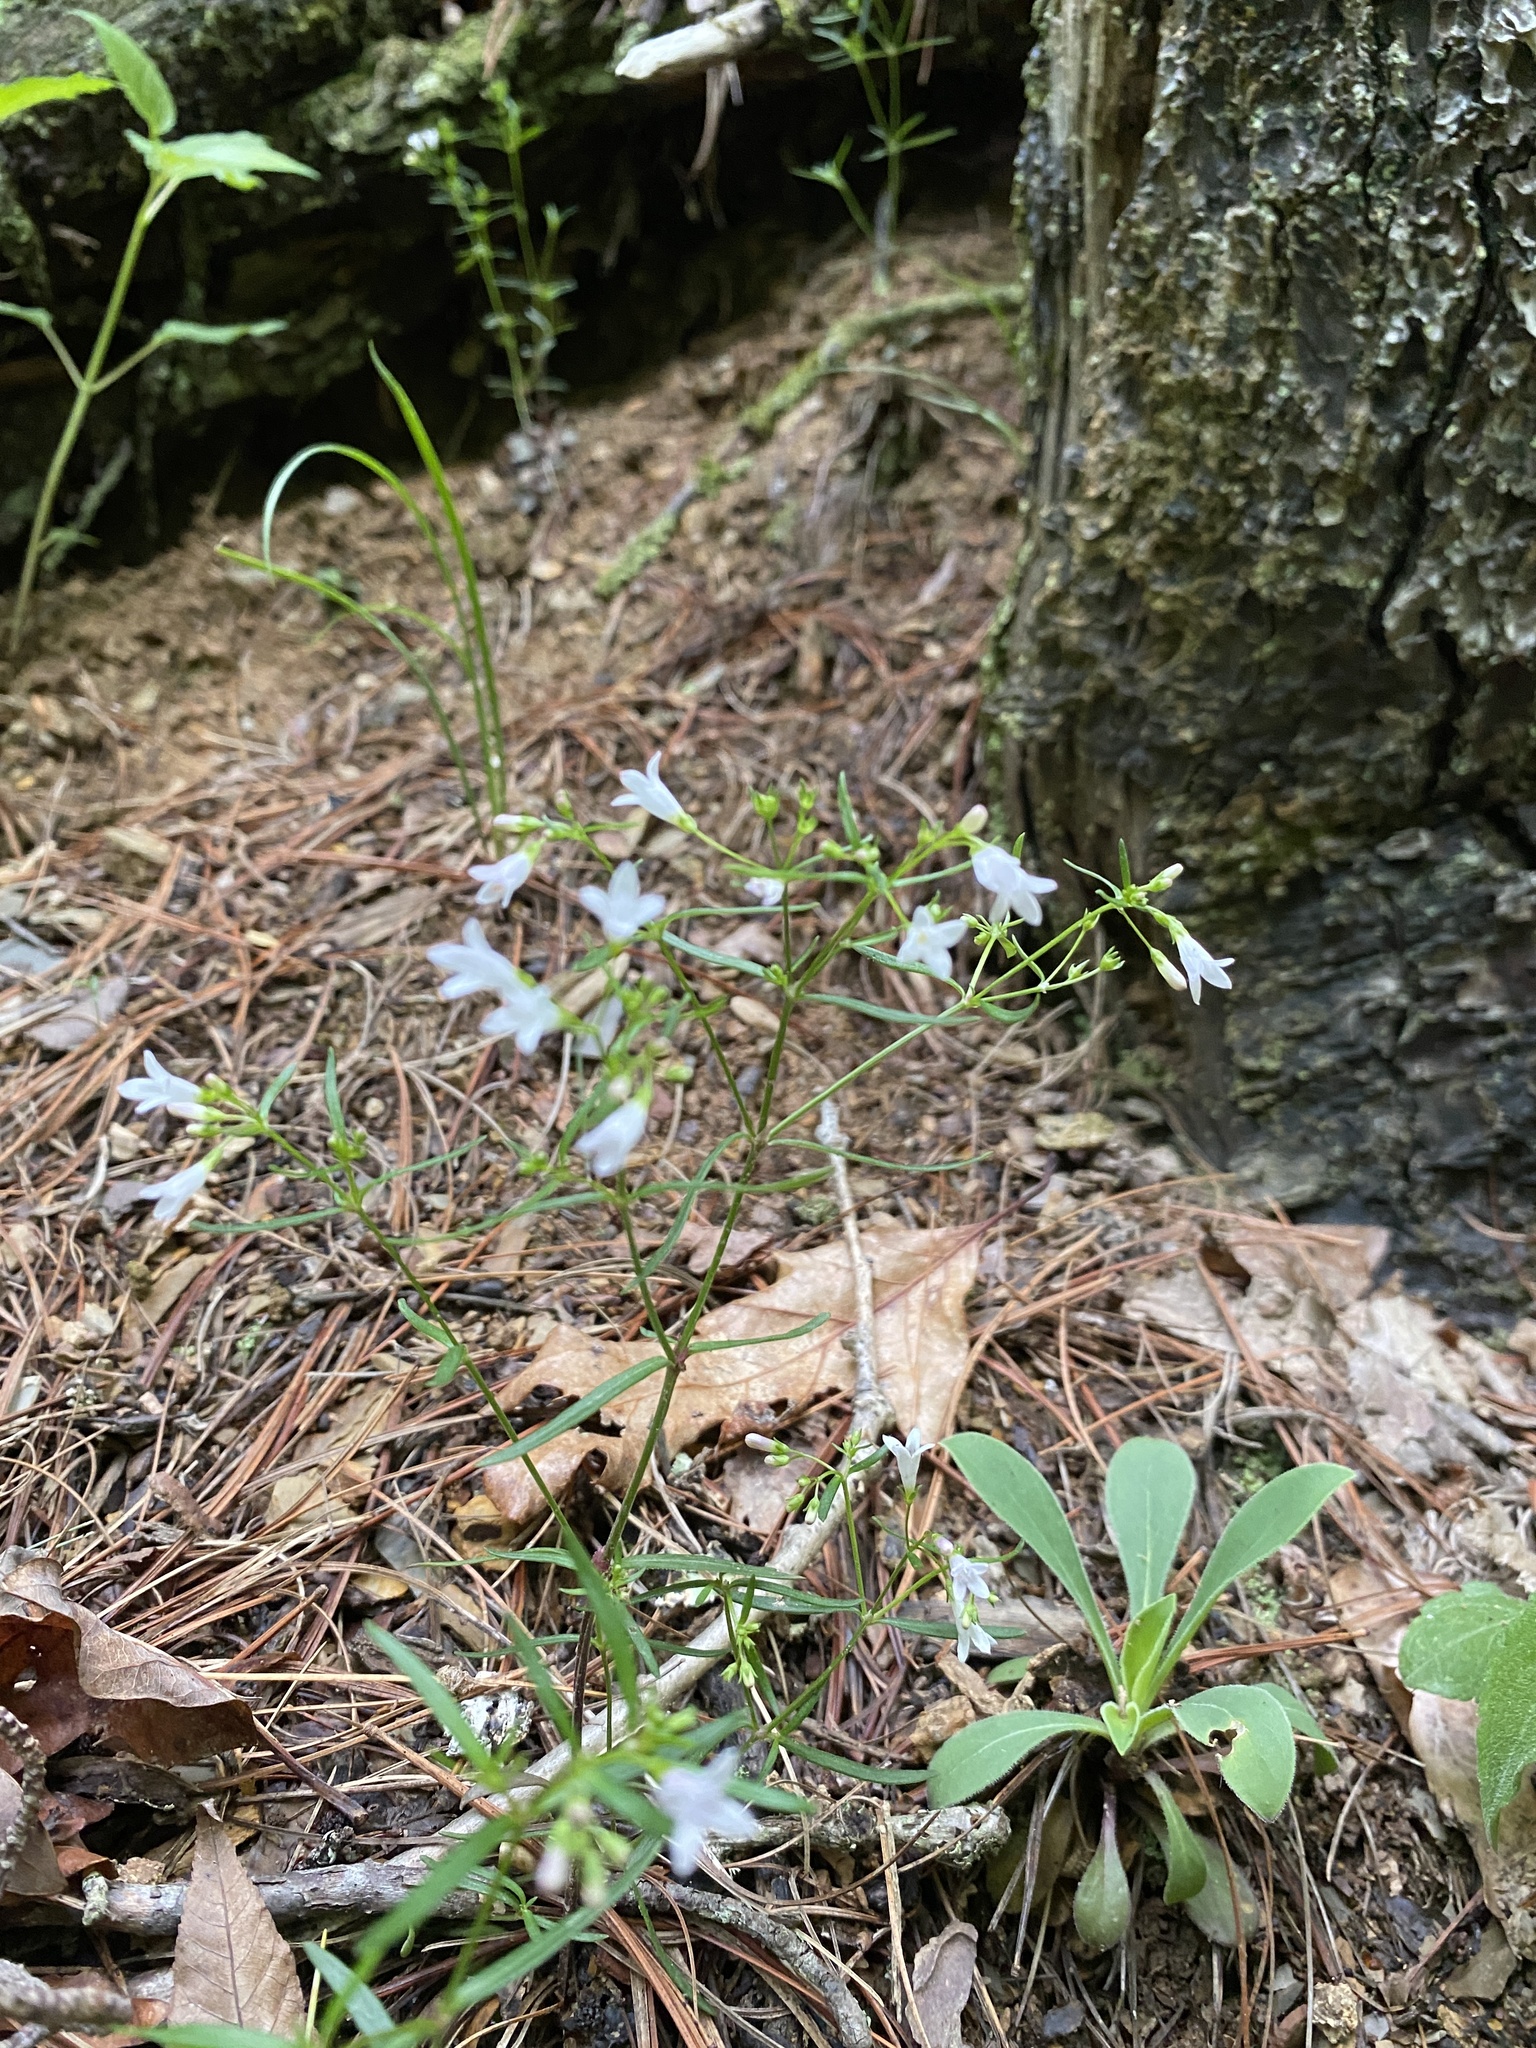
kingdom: Plantae
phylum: Tracheophyta
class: Magnoliopsida
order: Gentianales
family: Rubiaceae
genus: Houstonia
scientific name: Houstonia longifolia
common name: Long-leaved bluets
